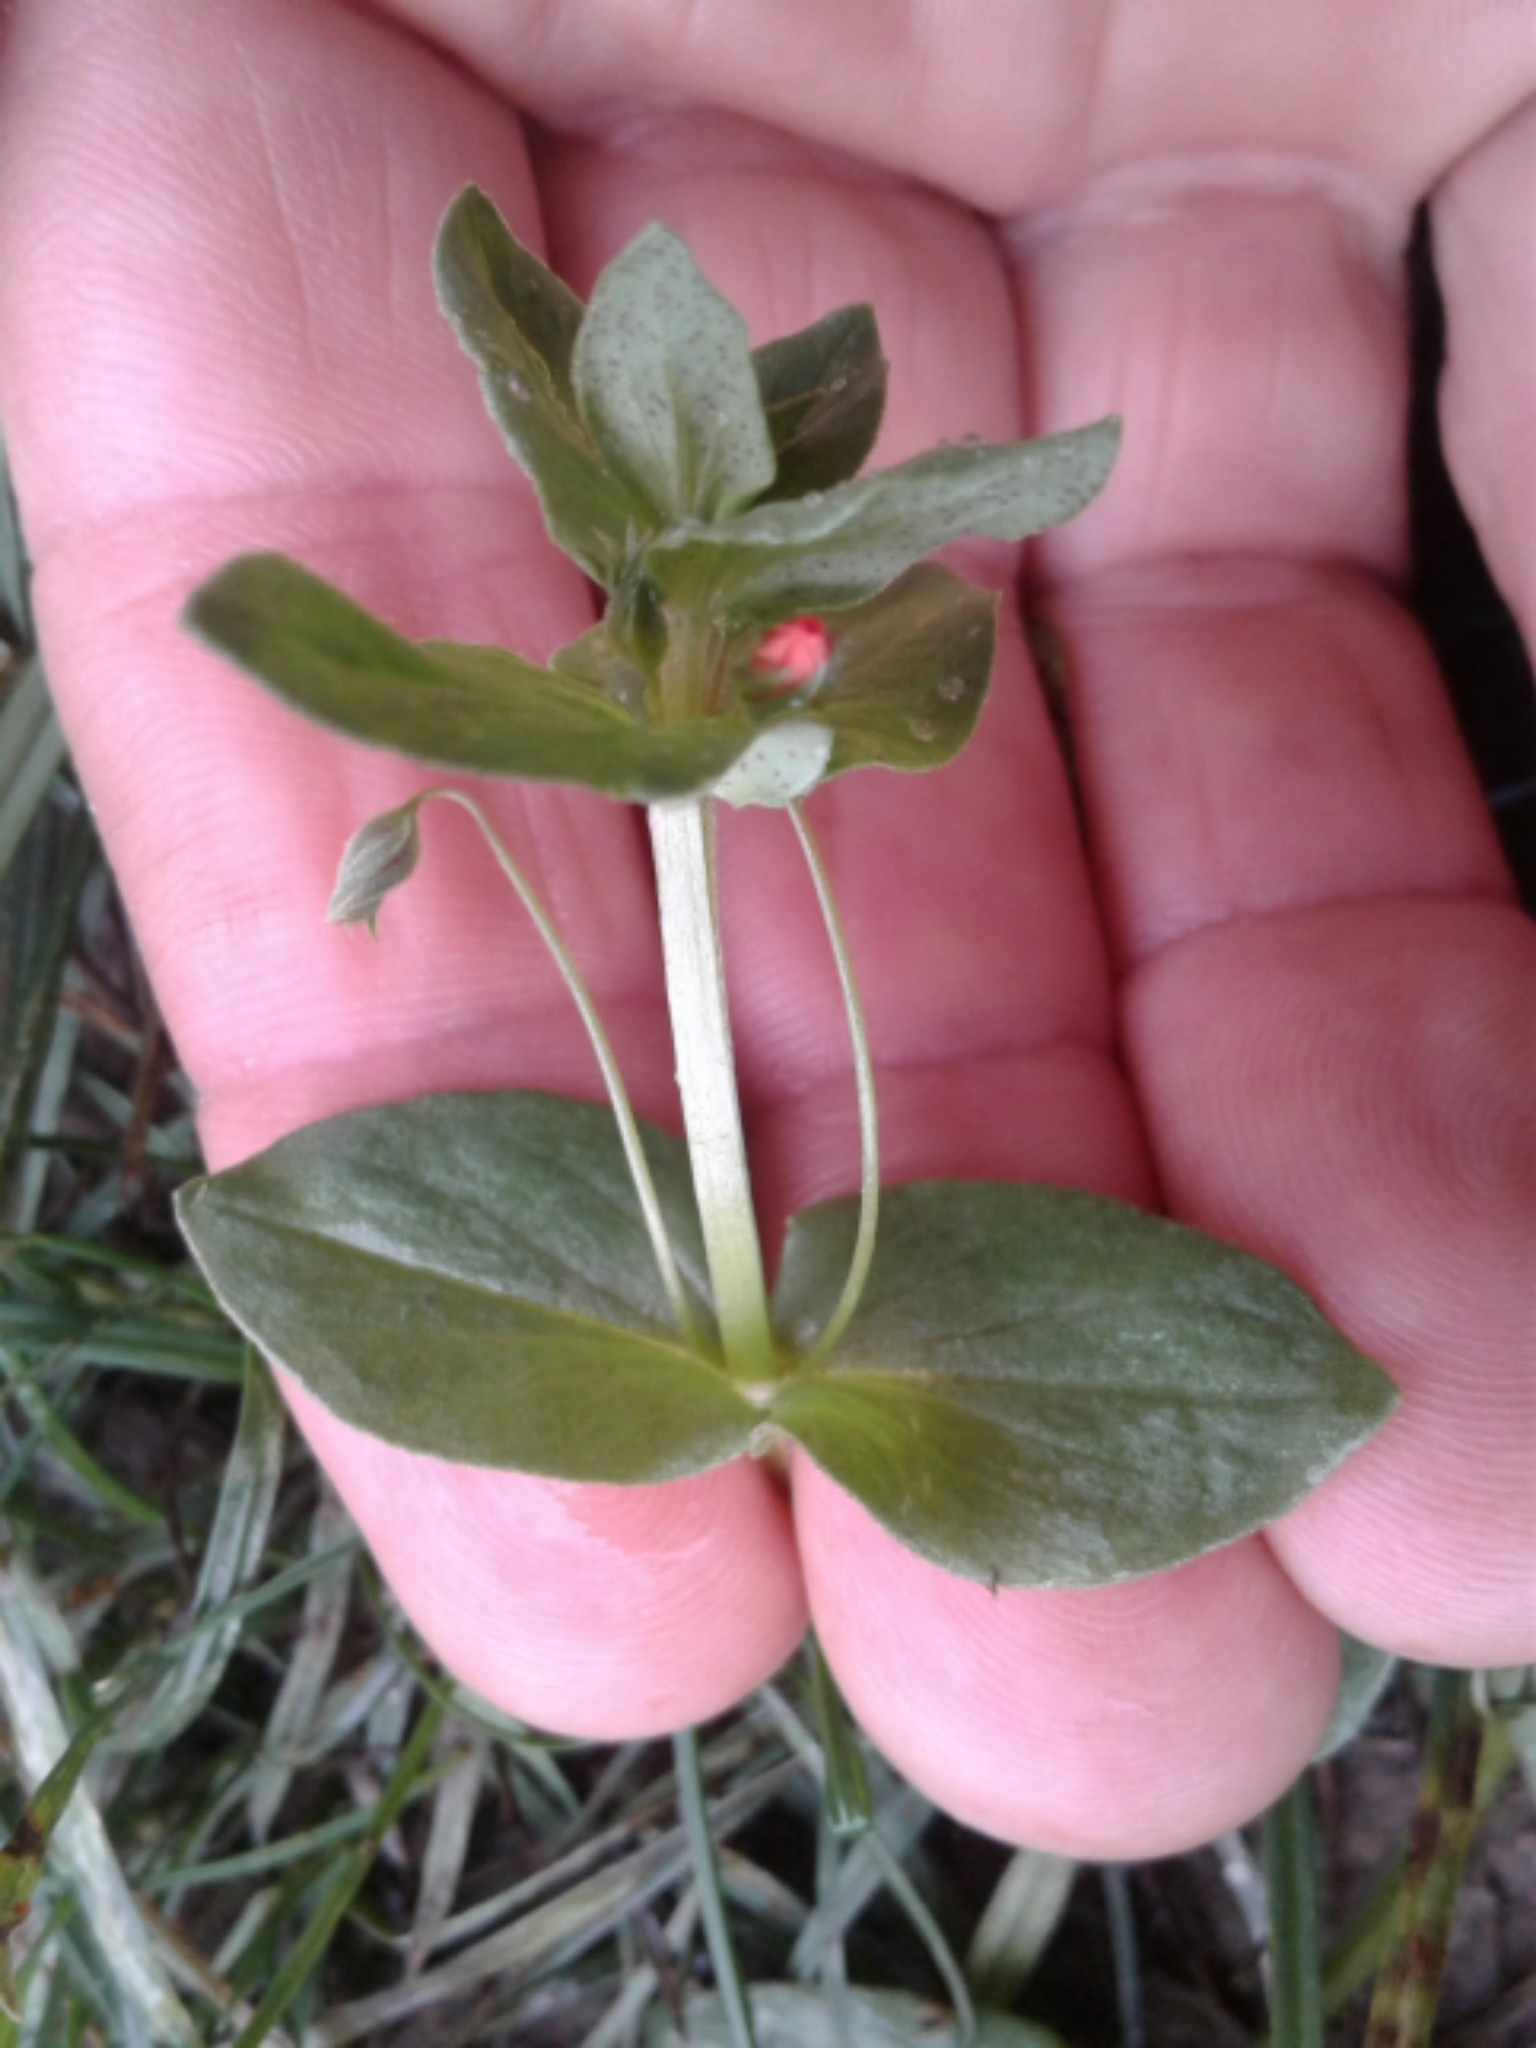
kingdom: Plantae
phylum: Tracheophyta
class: Magnoliopsida
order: Ericales
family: Primulaceae
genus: Lysimachia
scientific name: Lysimachia arvensis
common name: Scarlet pimpernel
